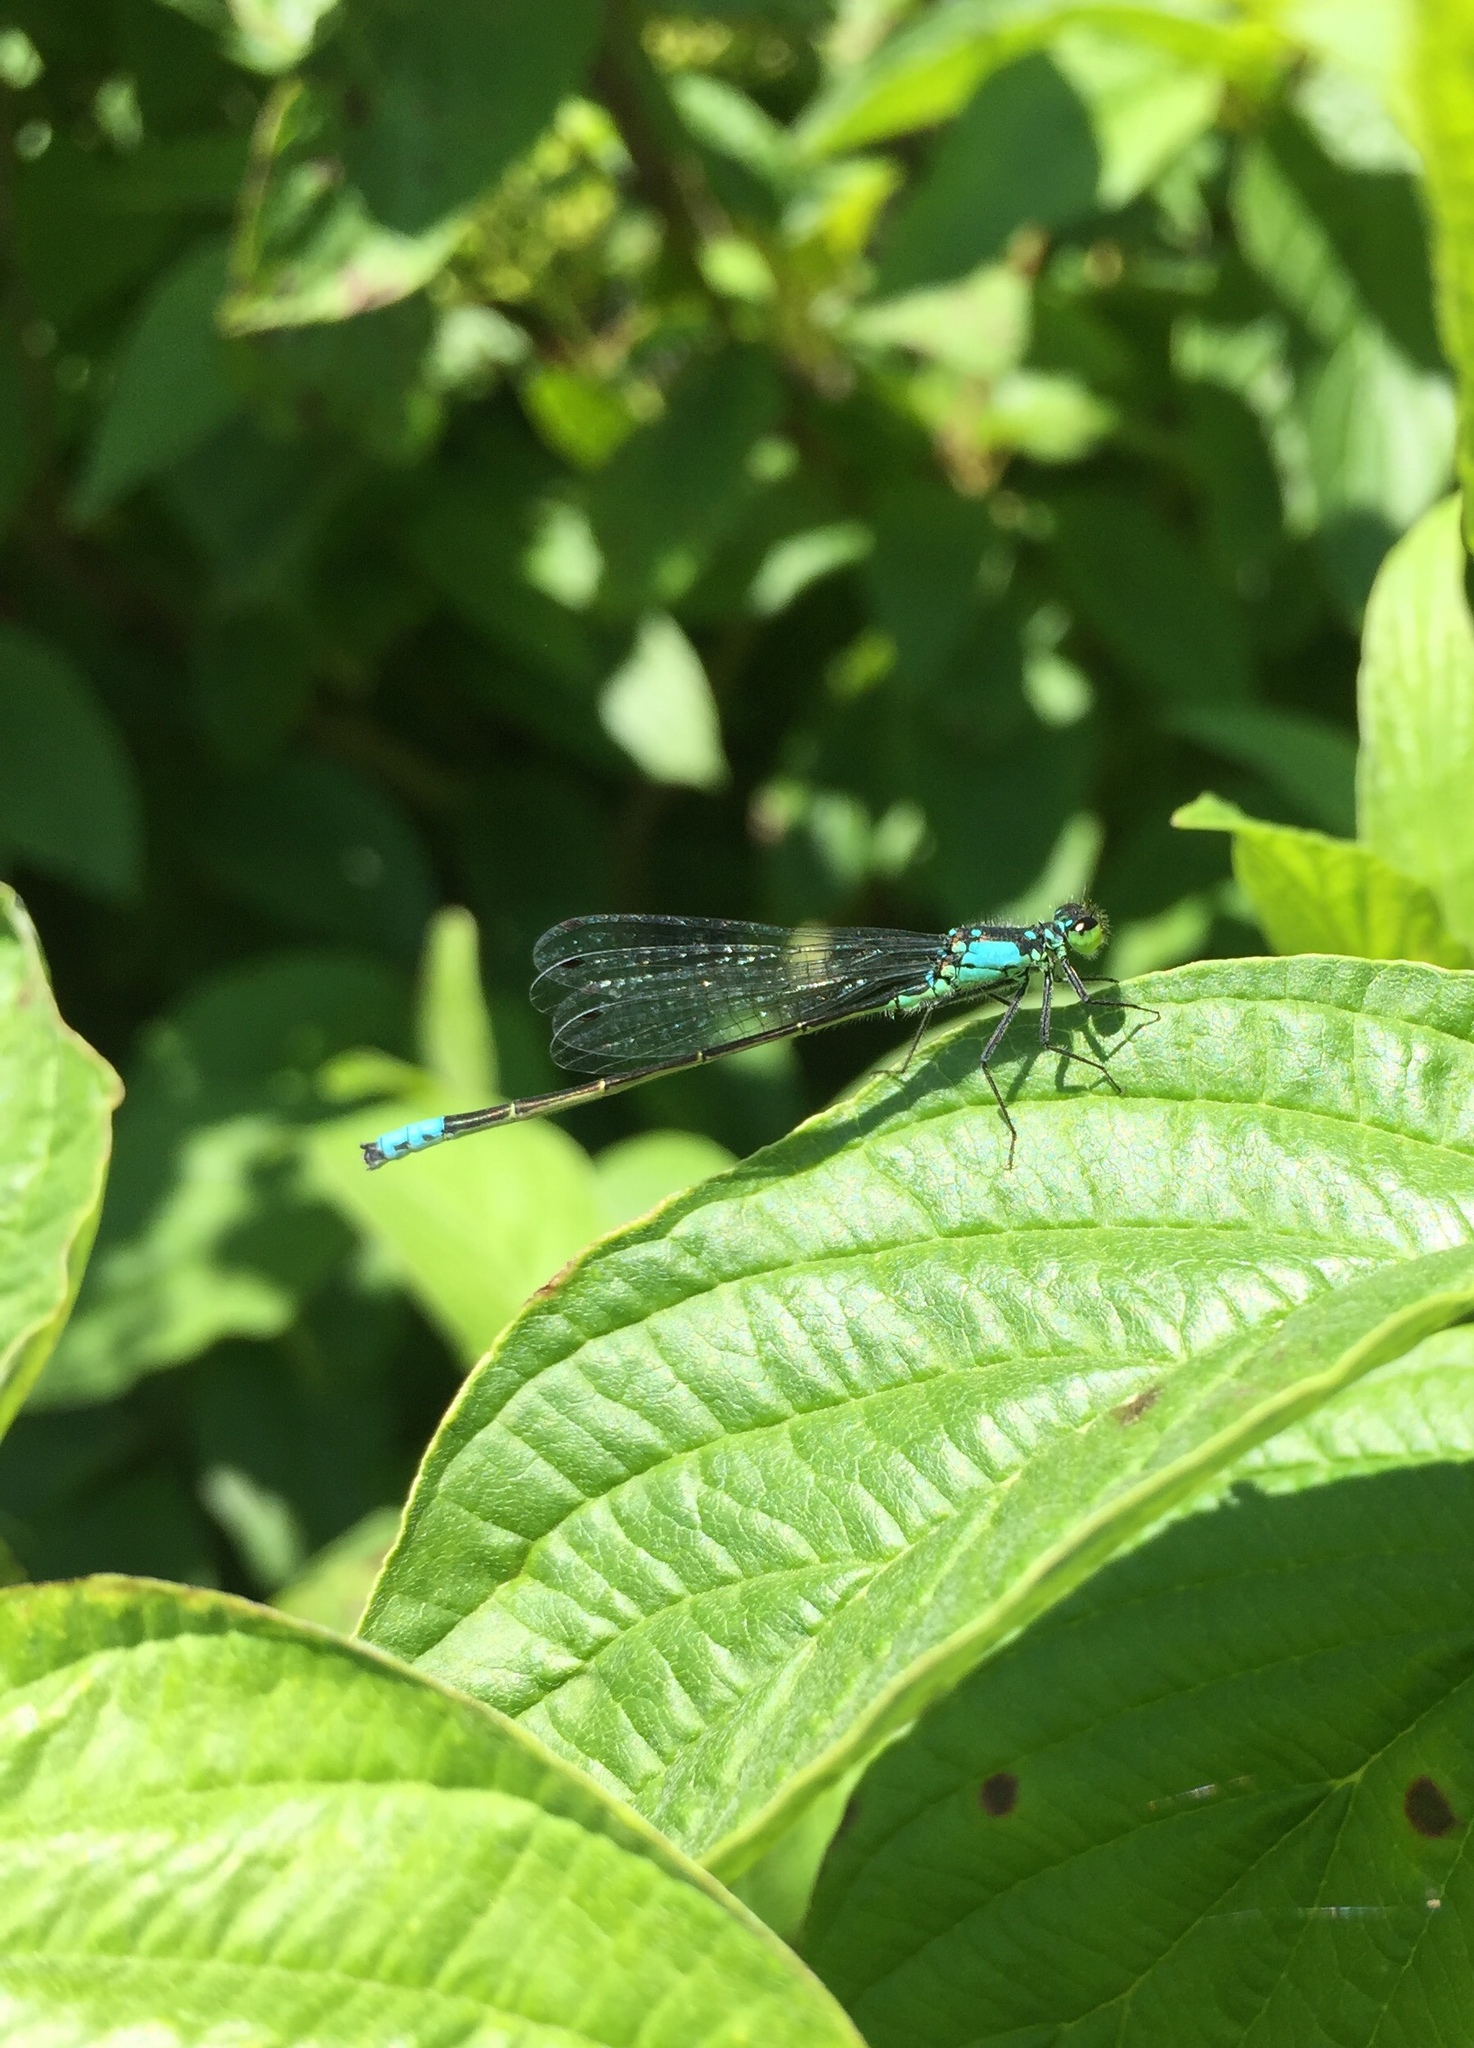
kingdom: Animalia
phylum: Arthropoda
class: Insecta
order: Odonata
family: Coenagrionidae
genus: Ischnura
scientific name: Ischnura cervula
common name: Pacific forktail
